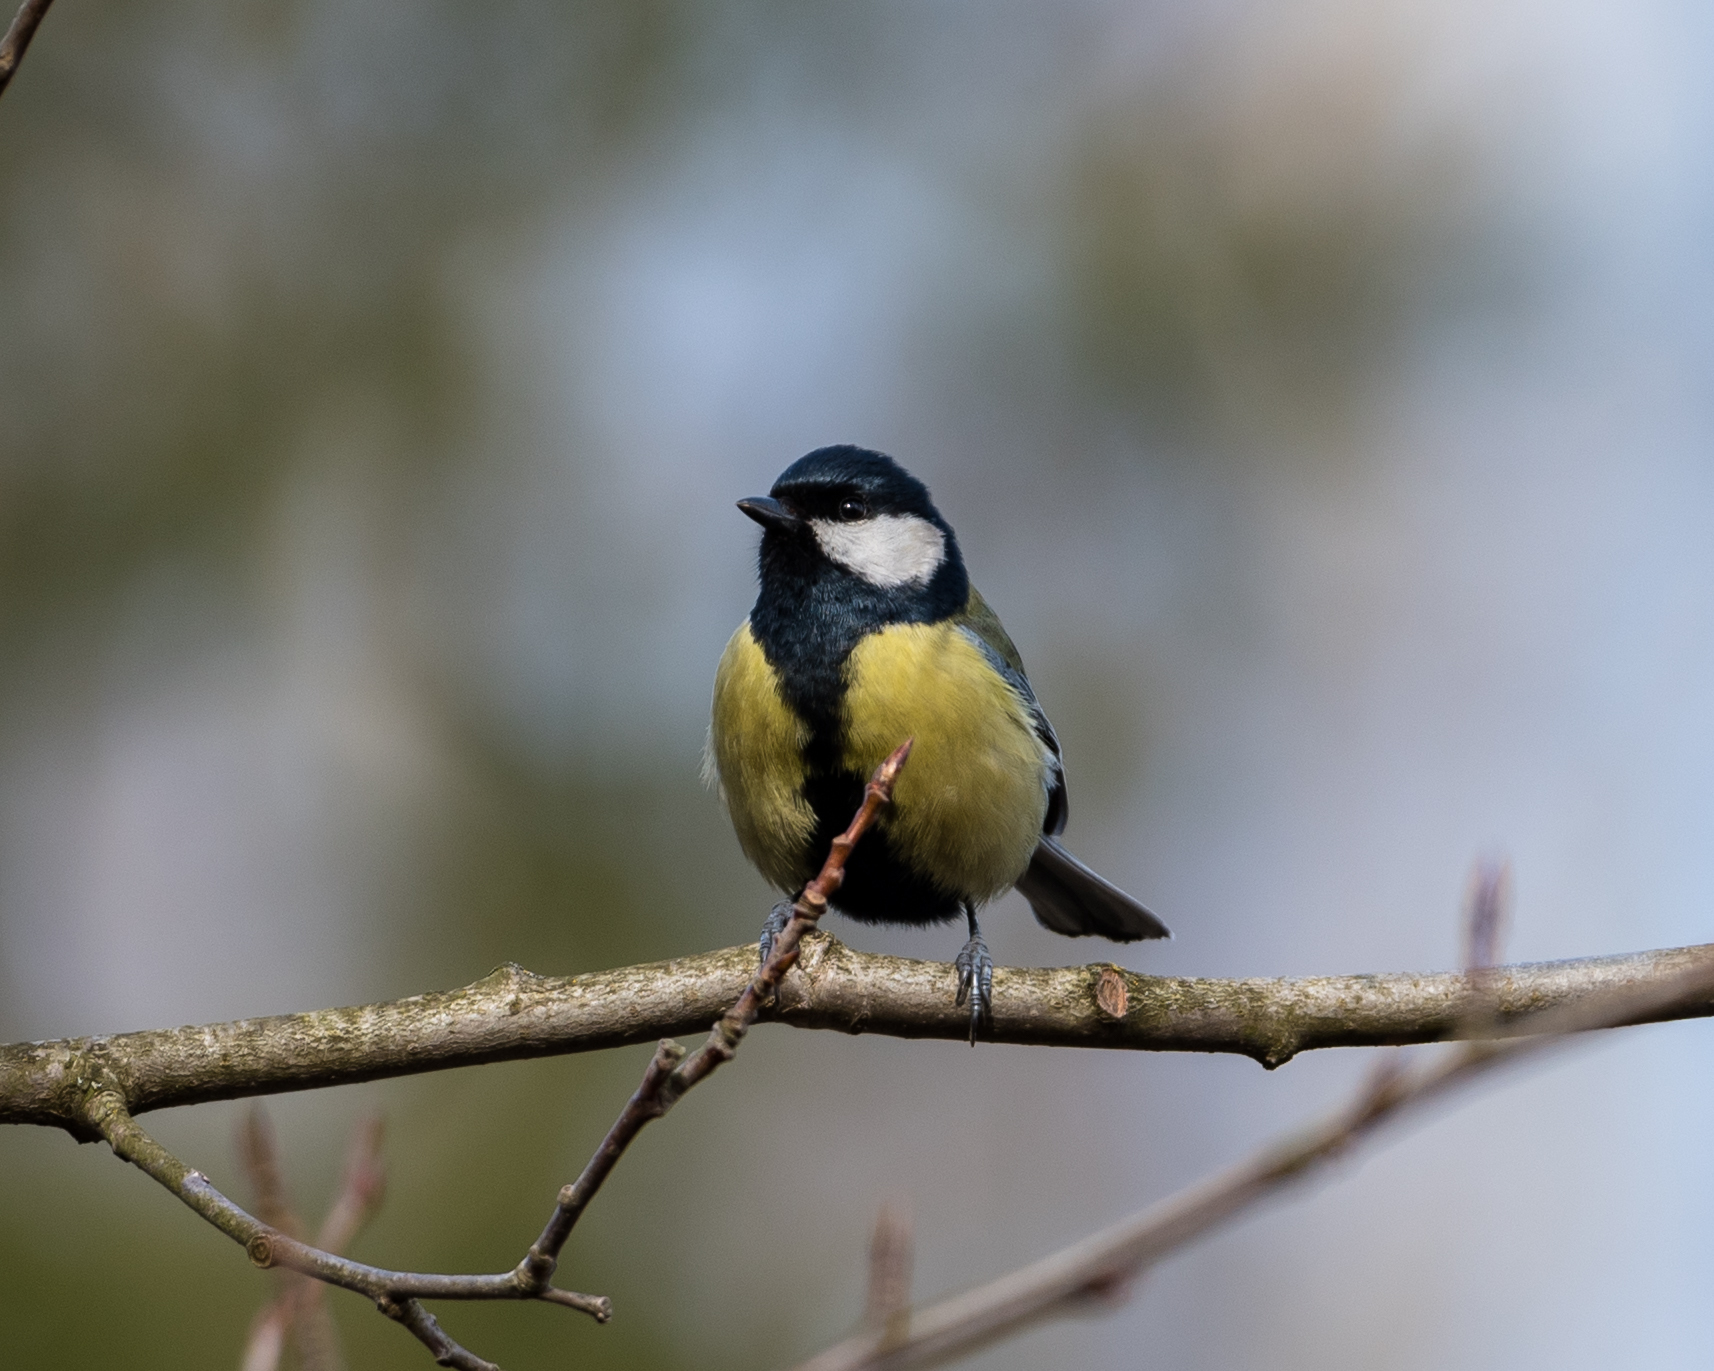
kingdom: Animalia
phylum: Chordata
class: Aves
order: Passeriformes
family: Paridae
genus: Parus
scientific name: Parus major
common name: Great tit
